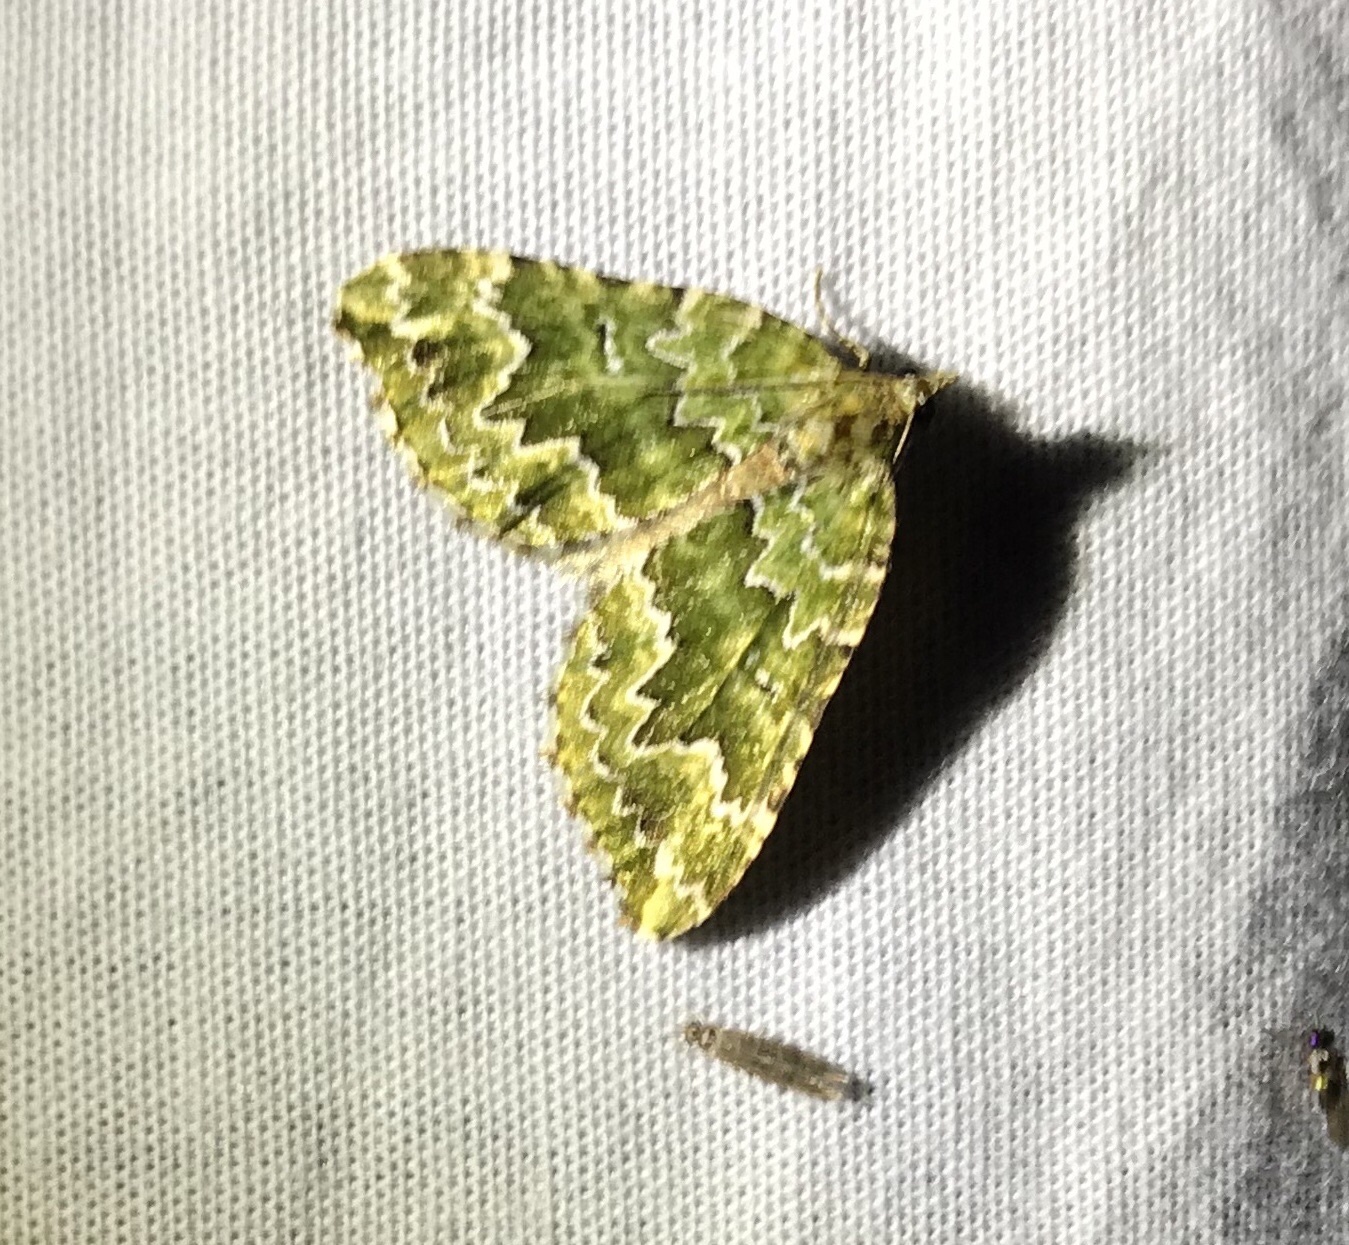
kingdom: Animalia
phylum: Arthropoda
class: Insecta
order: Lepidoptera
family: Geometridae
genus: Asaphodes
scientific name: Asaphodes beata
